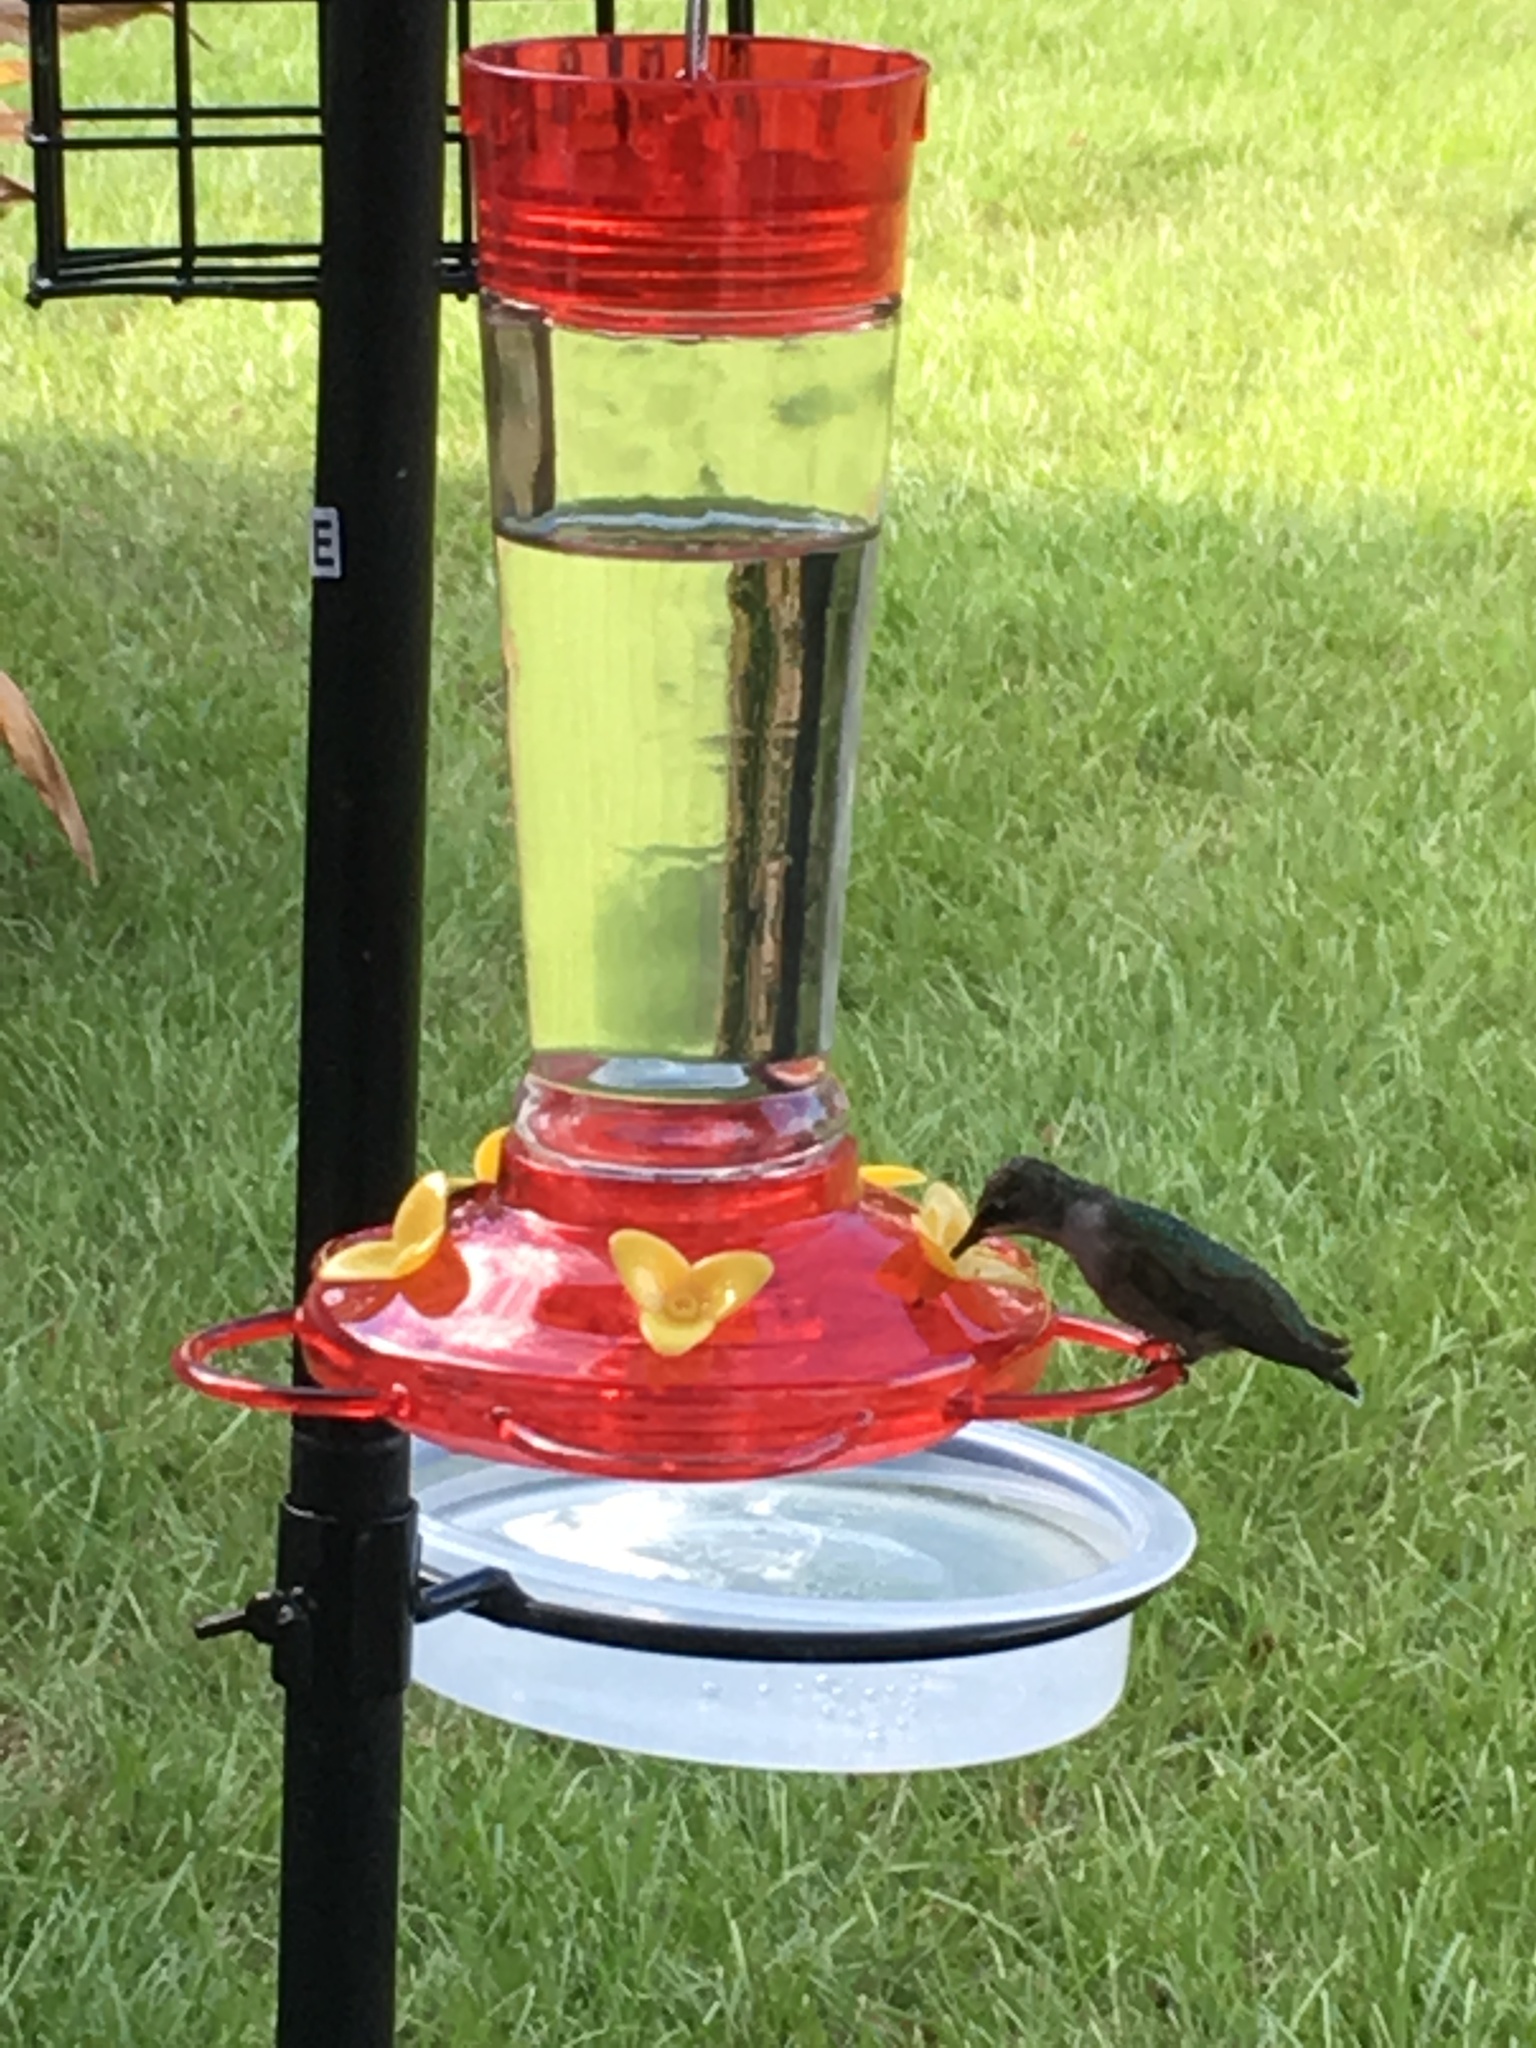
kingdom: Animalia
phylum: Chordata
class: Aves
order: Apodiformes
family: Trochilidae
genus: Archilochus
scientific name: Archilochus colubris
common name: Ruby-throated hummingbird
